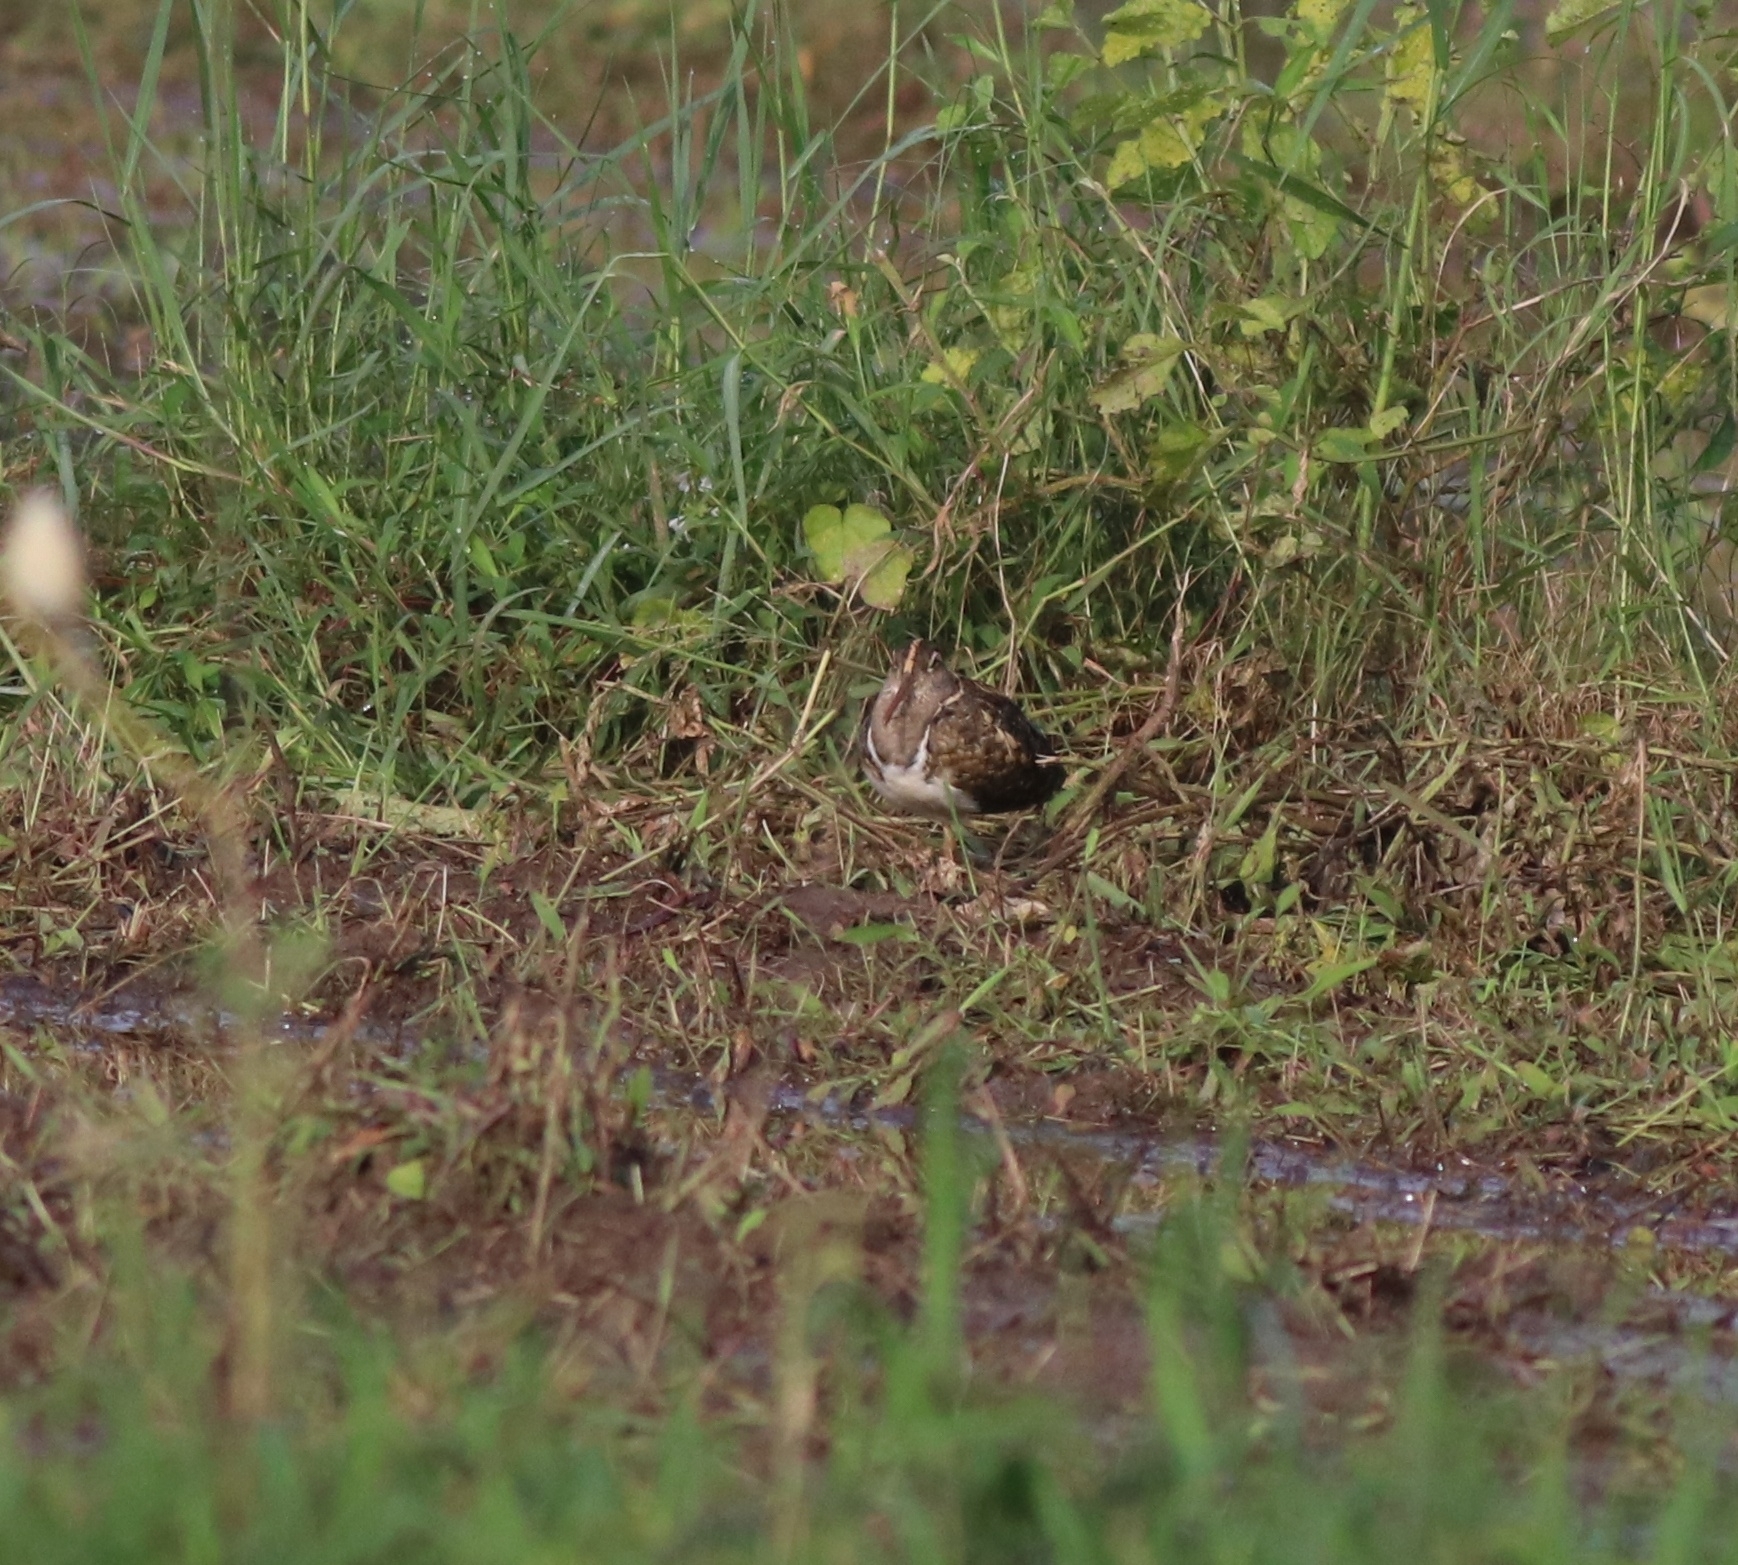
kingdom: Animalia
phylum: Chordata
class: Aves
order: Charadriiformes
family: Rostratulidae
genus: Rostratula
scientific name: Rostratula benghalensis
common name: Greater painted-snipe
